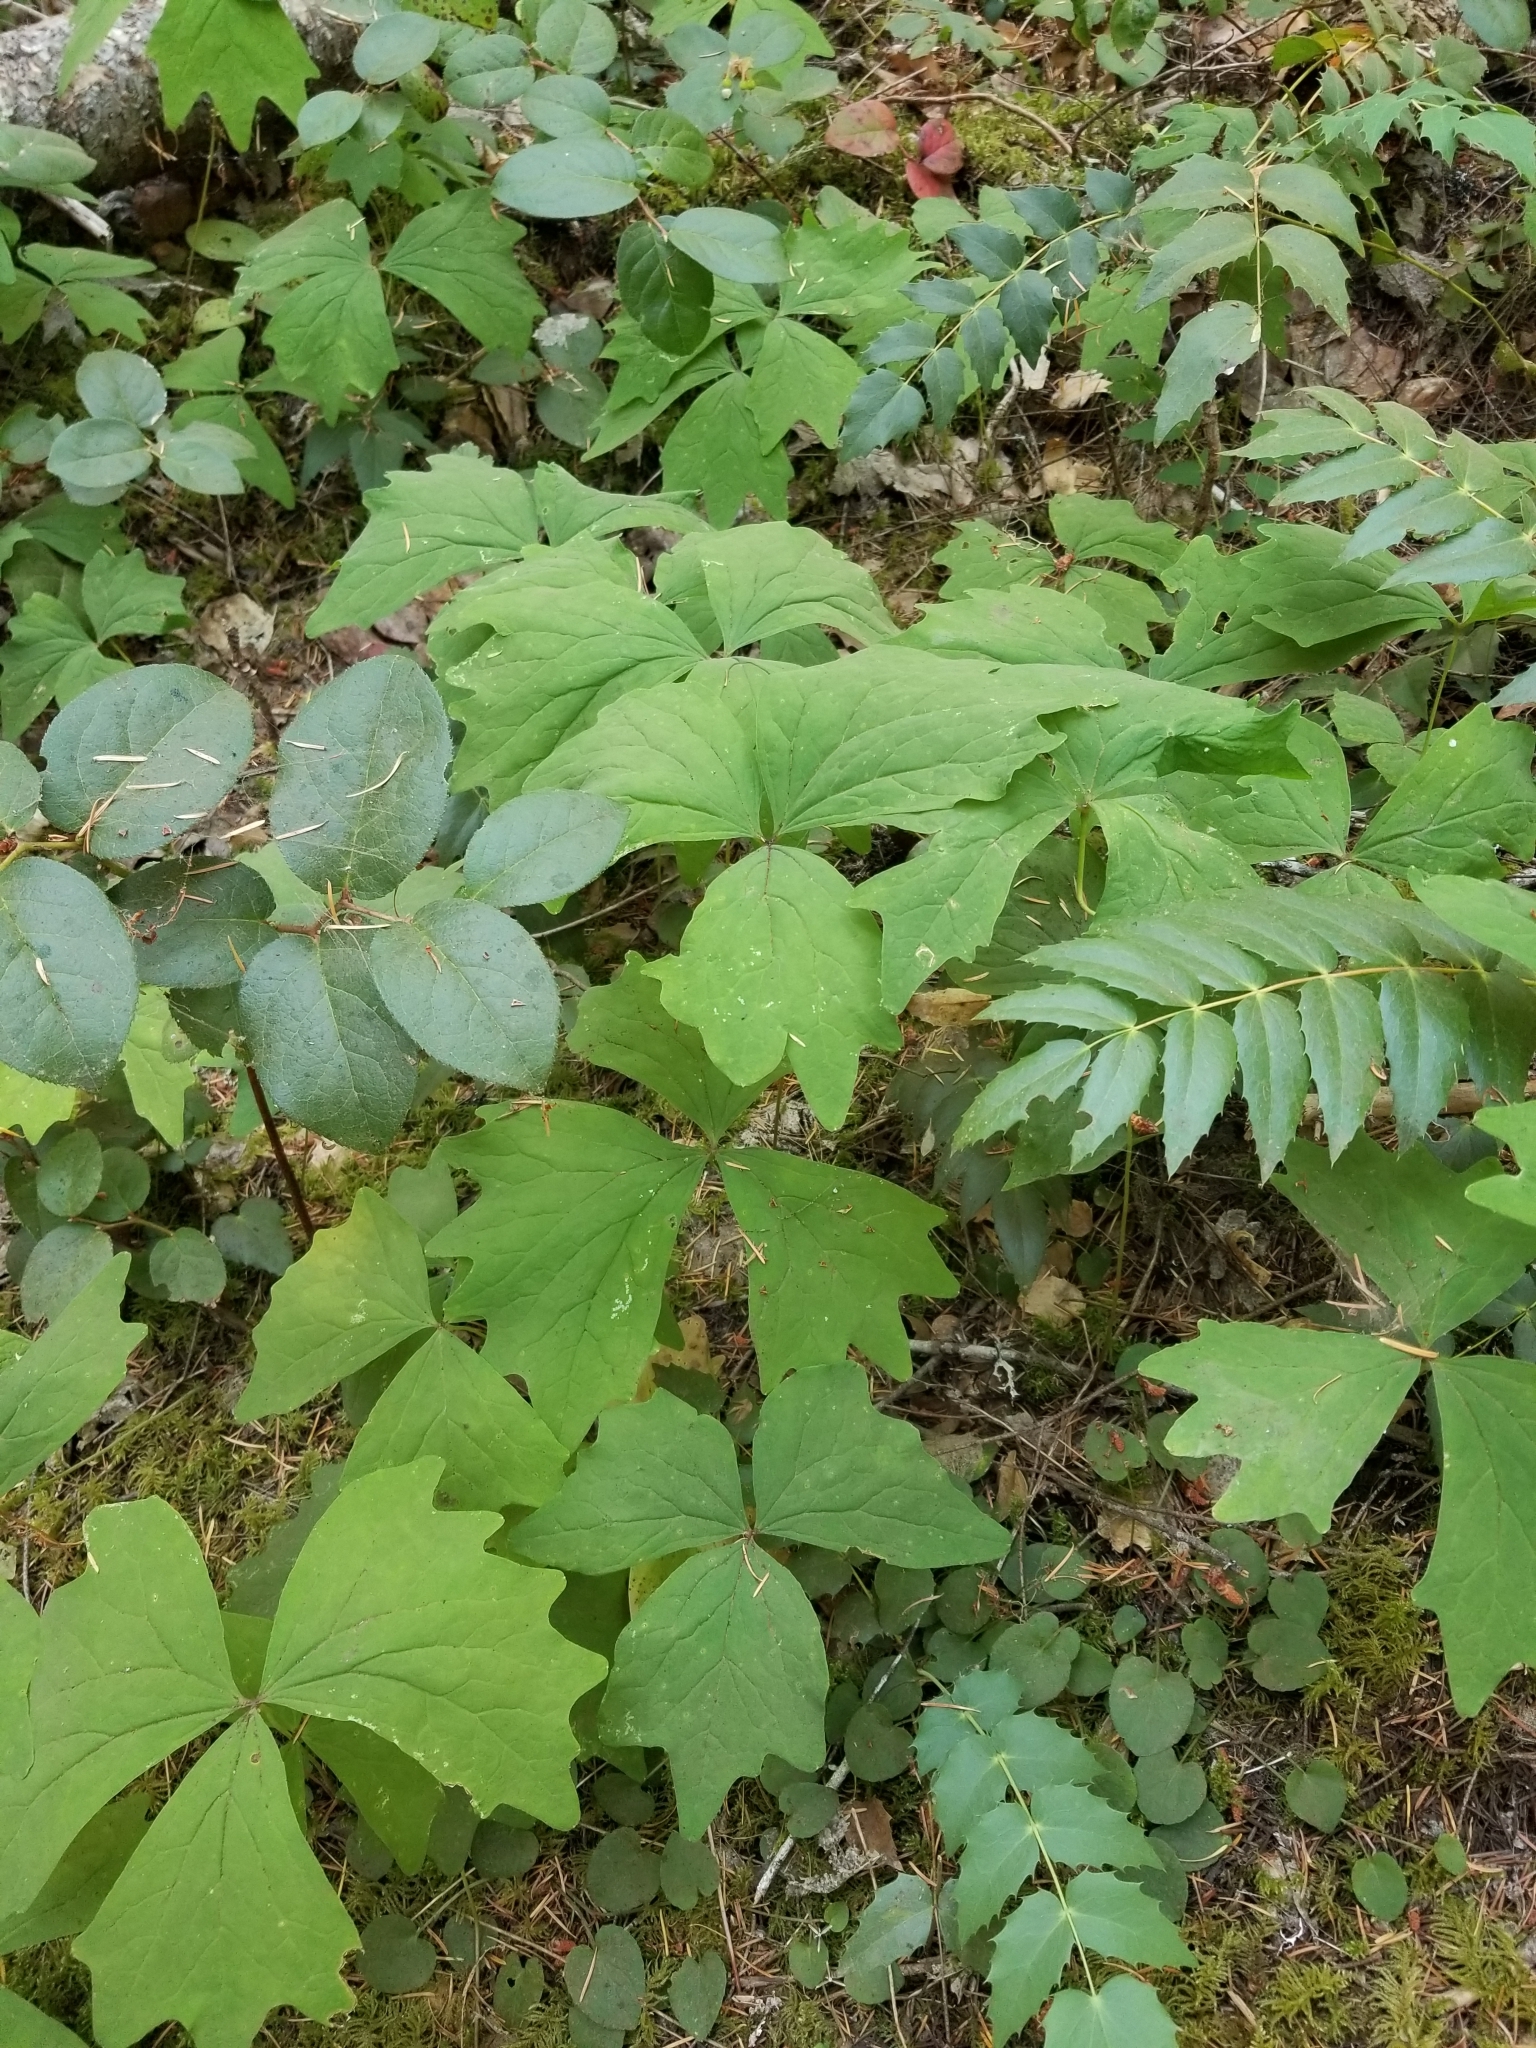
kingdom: Plantae
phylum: Tracheophyta
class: Magnoliopsida
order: Ranunculales
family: Berberidaceae
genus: Achlys
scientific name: Achlys triphylla
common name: Vanilla-leaf
